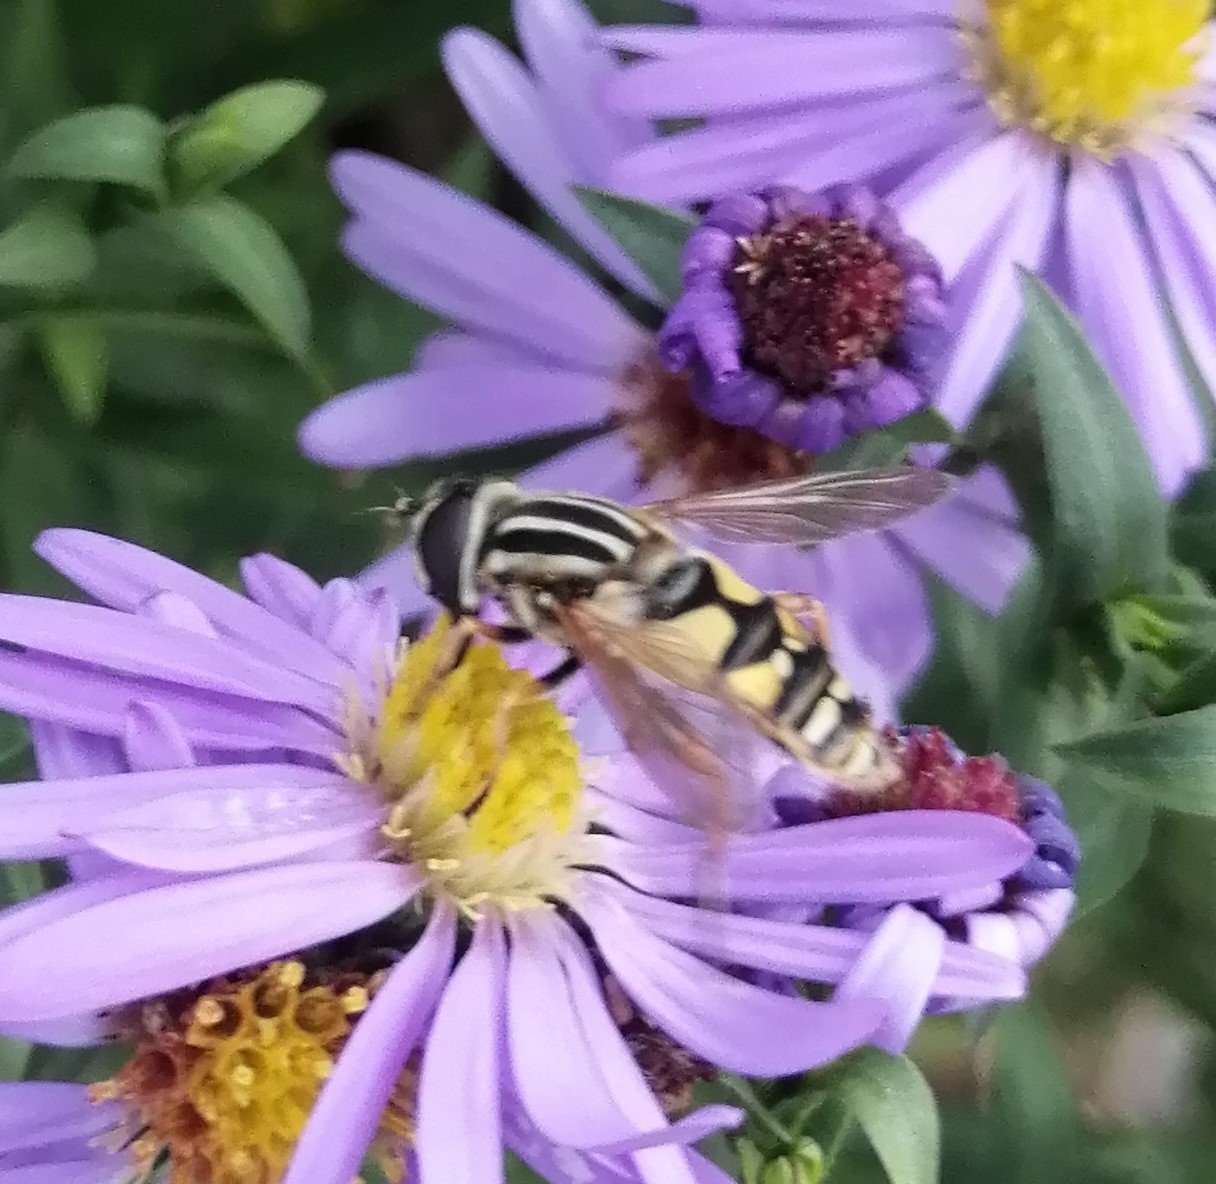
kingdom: Animalia
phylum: Arthropoda
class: Insecta
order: Diptera
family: Syrphidae
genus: Helophilus
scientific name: Helophilus pendulus
